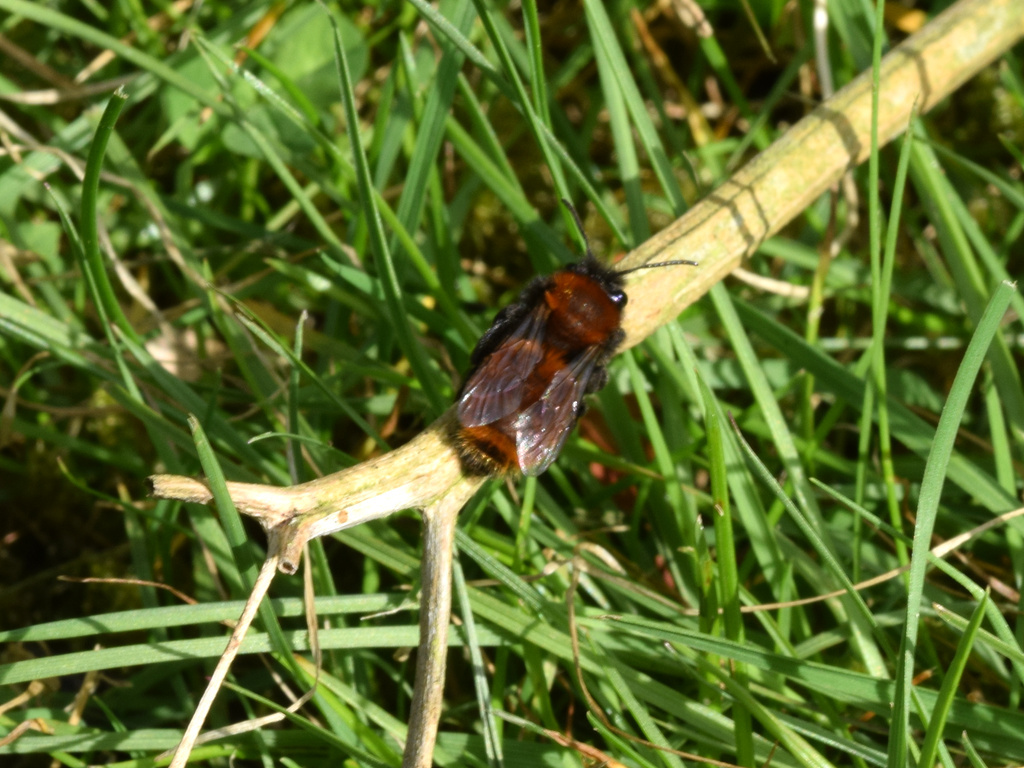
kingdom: Animalia
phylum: Arthropoda
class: Insecta
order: Hymenoptera
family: Andrenidae
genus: Andrena
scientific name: Andrena fulva
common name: Tawny mining bee
